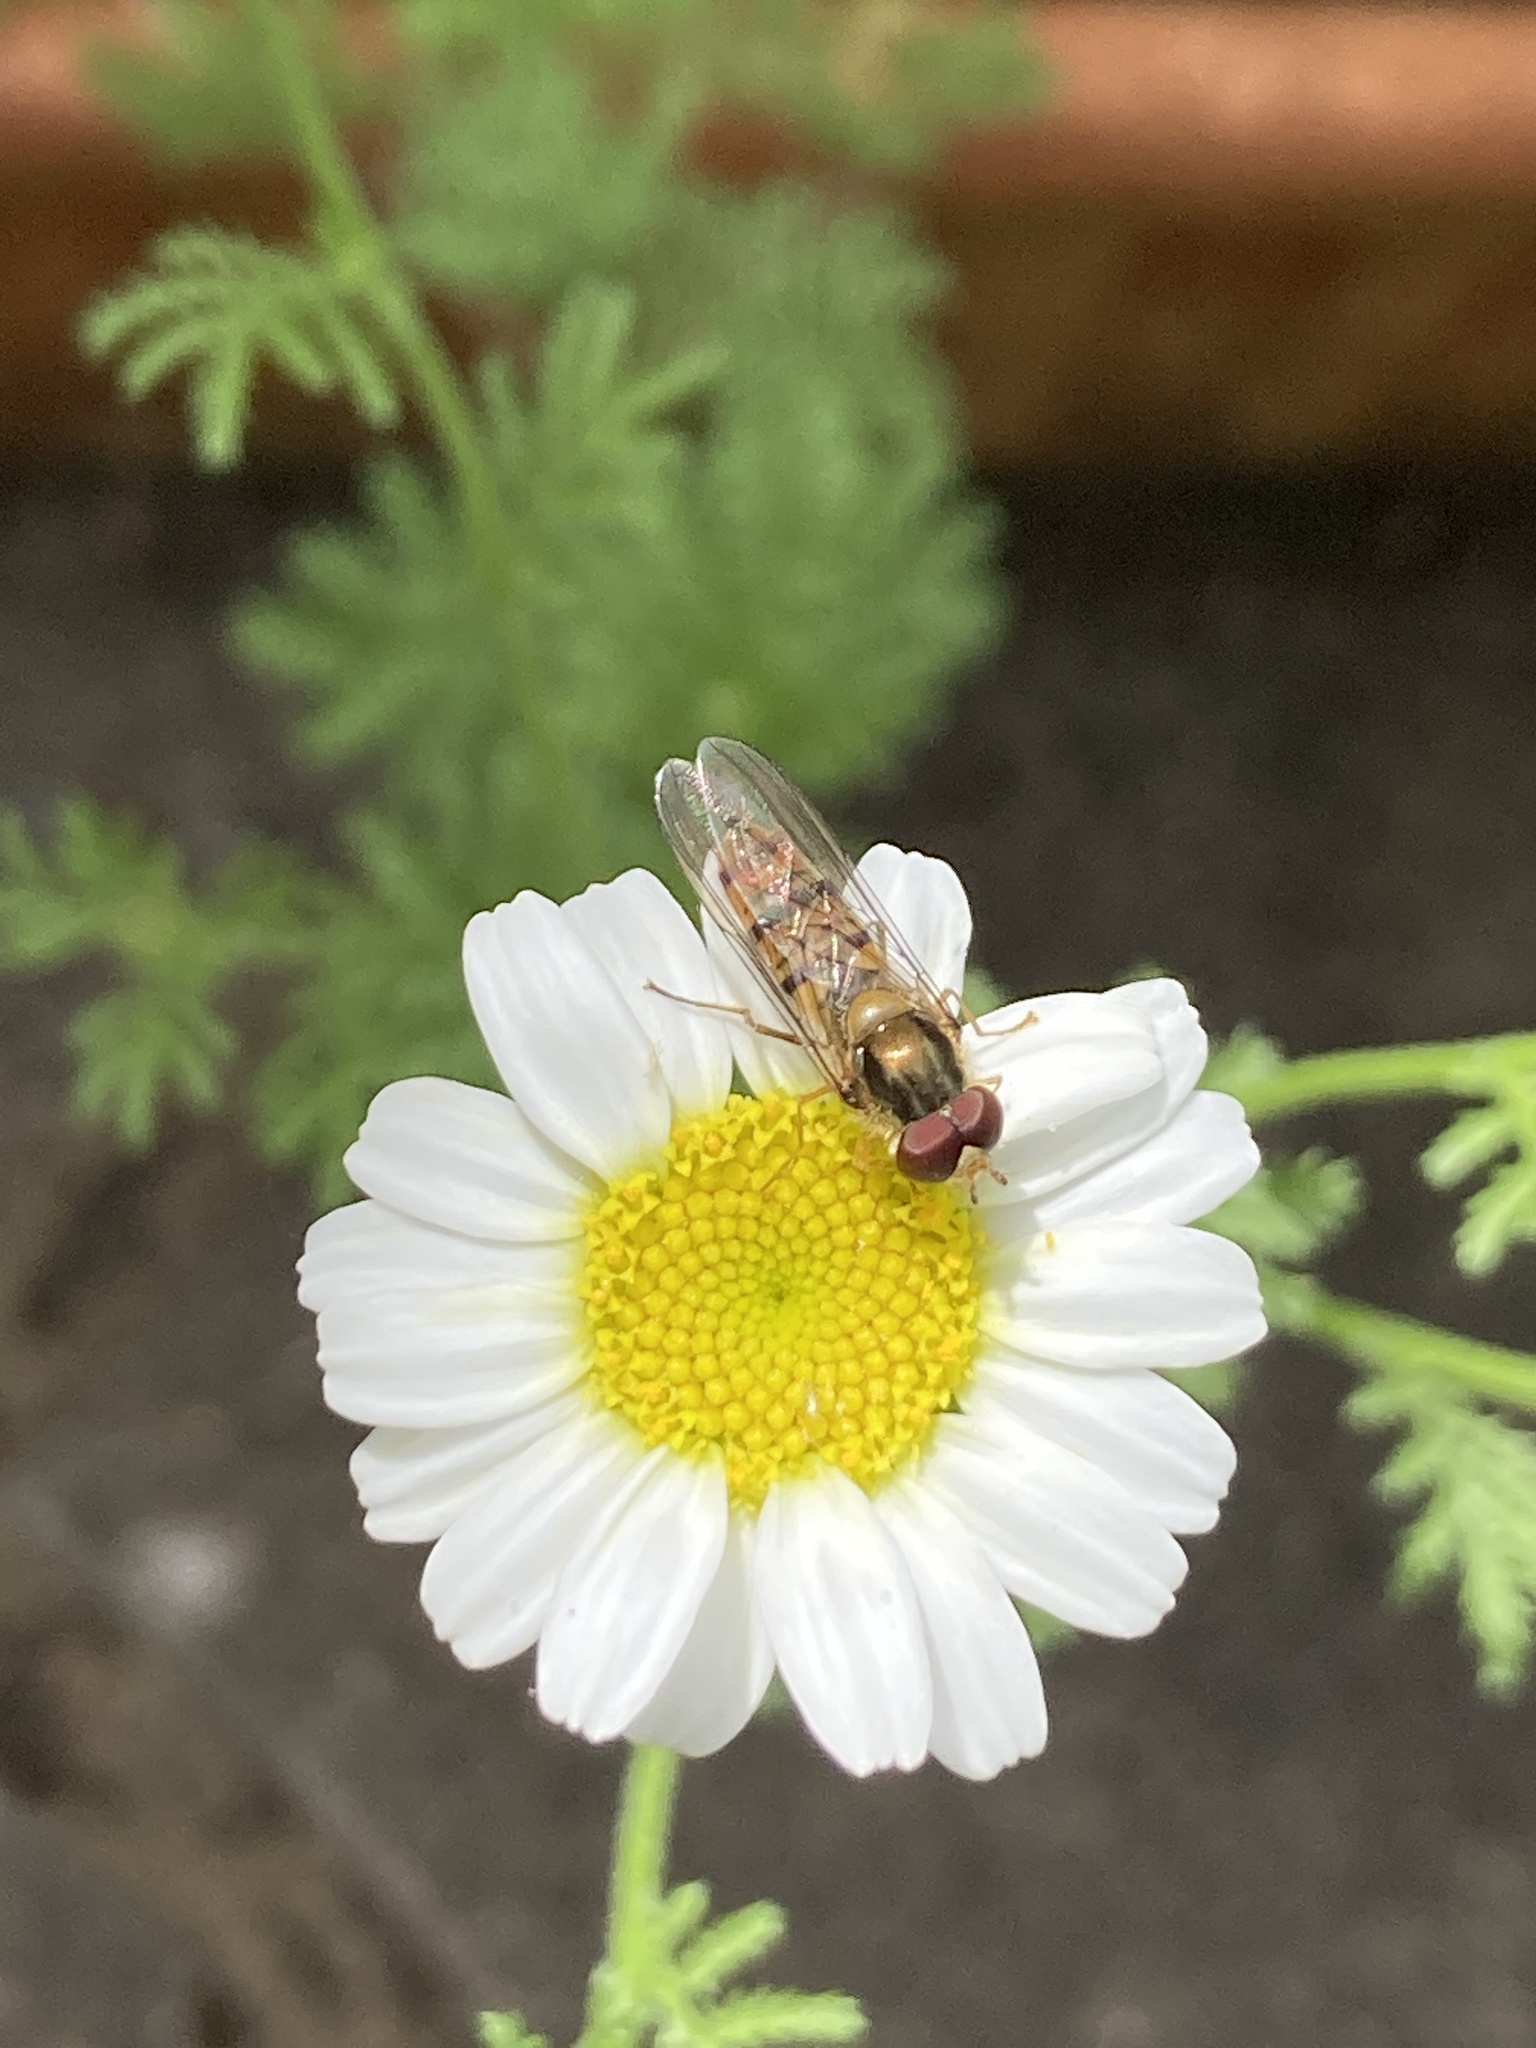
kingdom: Animalia
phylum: Arthropoda
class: Insecta
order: Diptera
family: Syrphidae
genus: Episyrphus
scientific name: Episyrphus balteatus
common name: Marmalade hoverfly
